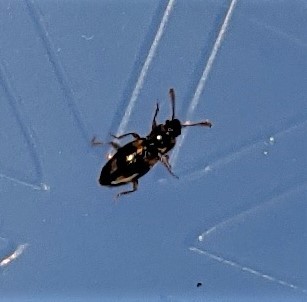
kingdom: Animalia
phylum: Arthropoda
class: Insecta
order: Coleoptera
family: Endomychidae
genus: Phymaphora
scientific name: Phymaphora pulchella
